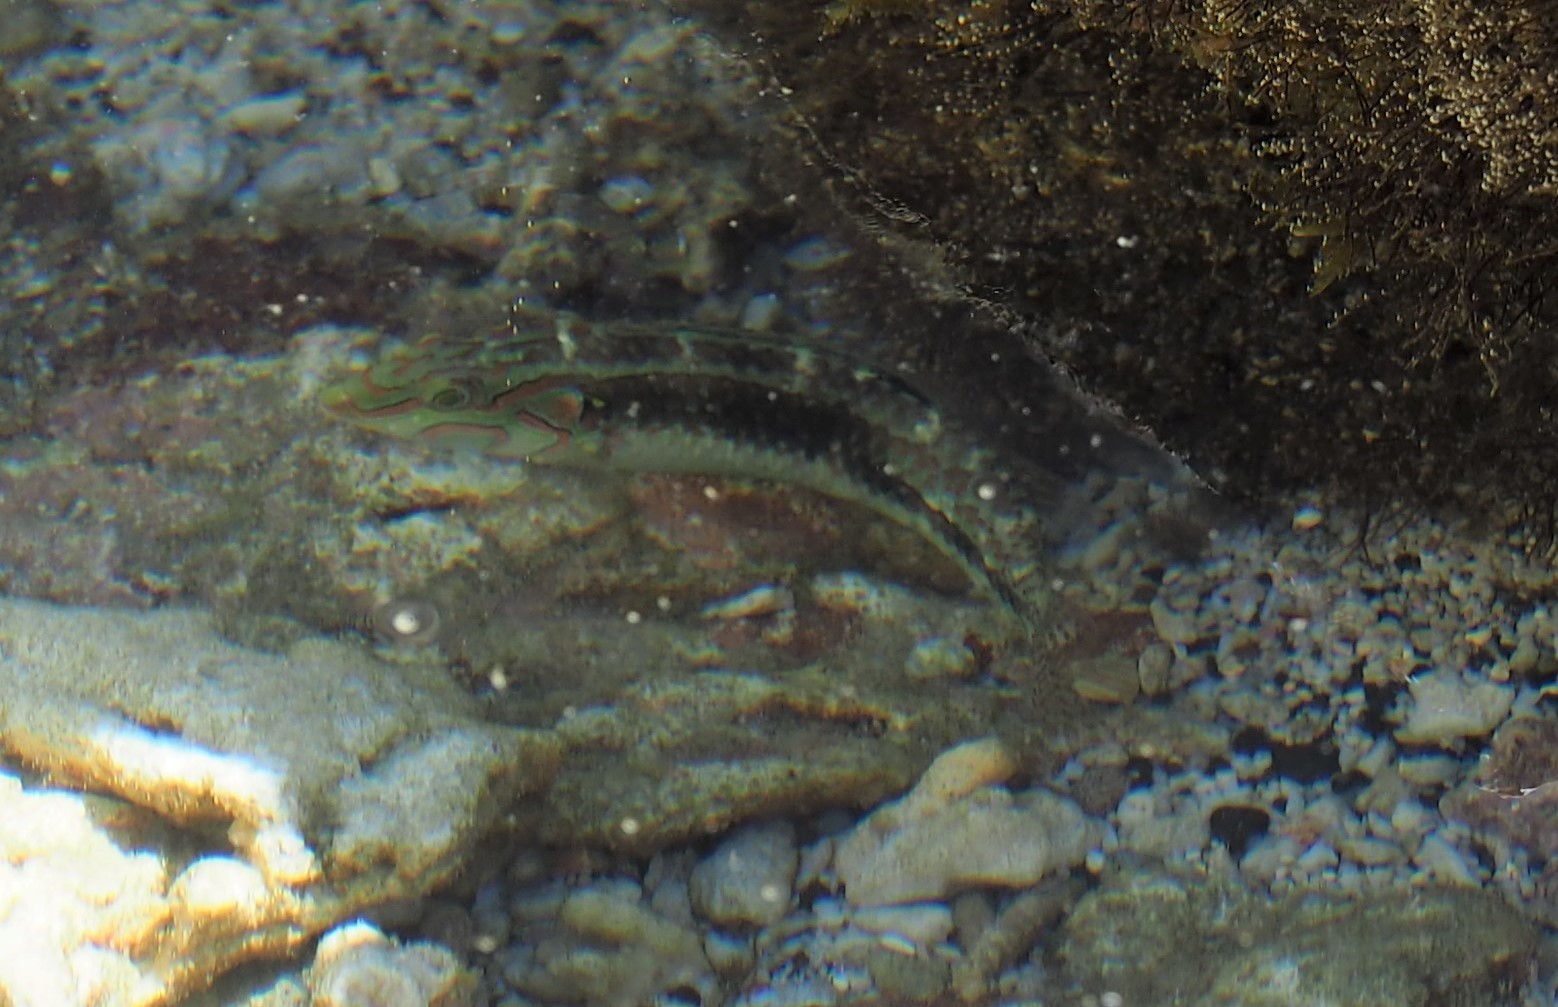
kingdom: Animalia
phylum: Chordata
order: Perciformes
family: Labridae
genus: Halichoeres
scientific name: Halichoeres miniatus
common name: Circle-cheek wrasse
